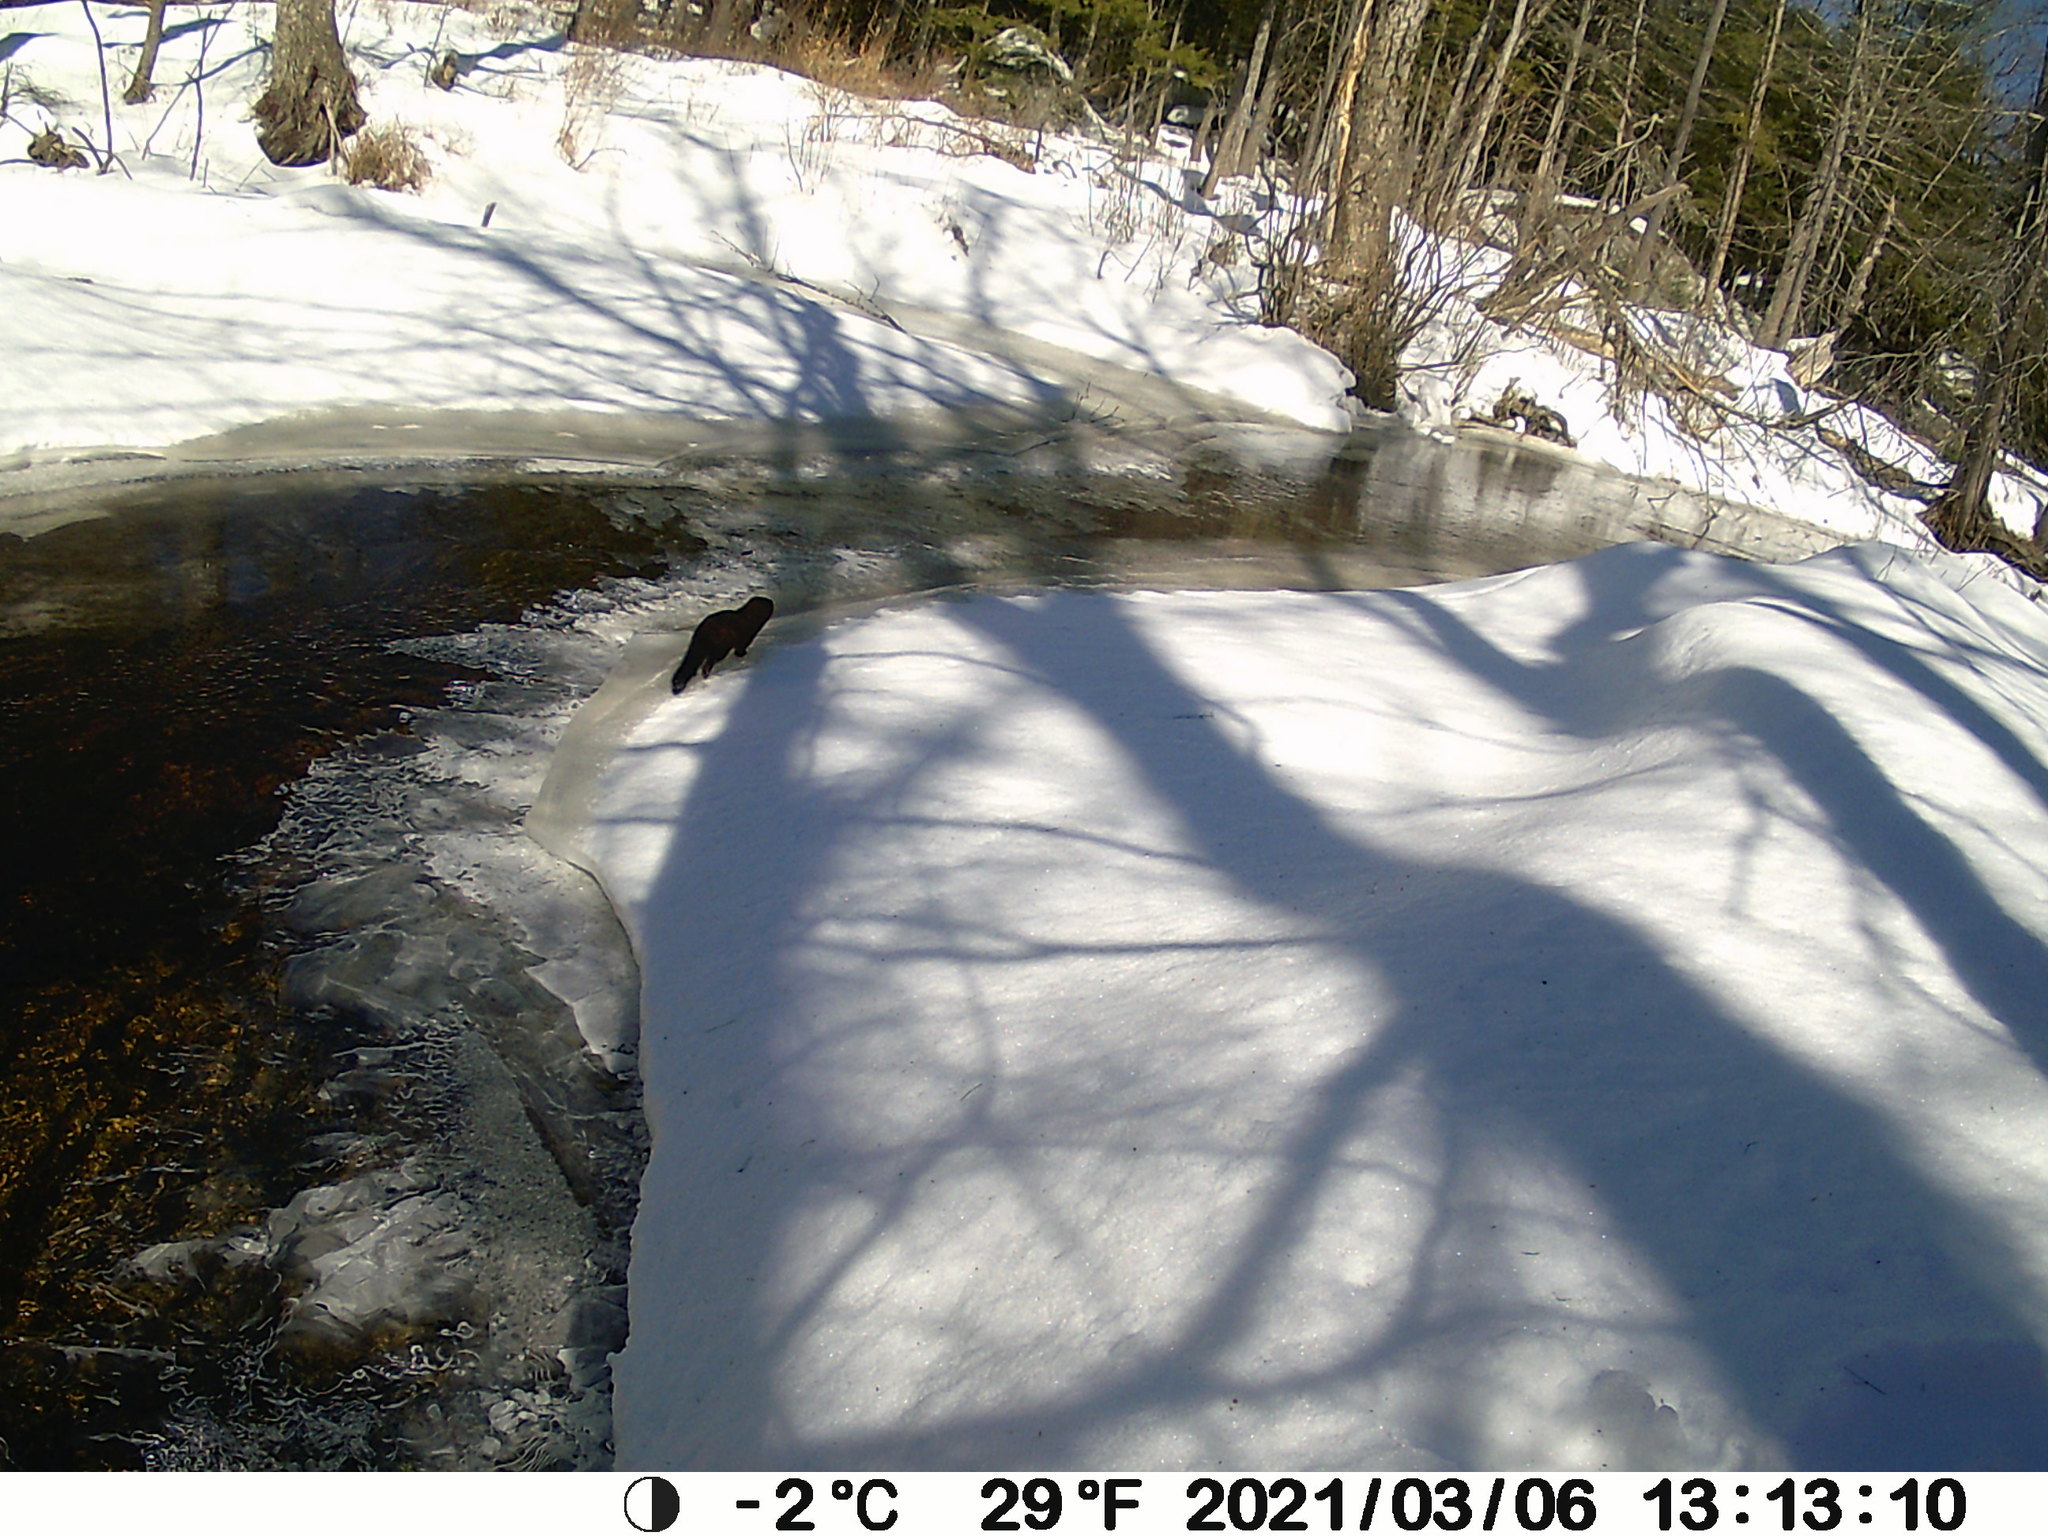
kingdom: Animalia
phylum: Chordata
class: Mammalia
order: Carnivora
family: Mustelidae
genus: Mustela
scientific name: Mustela
